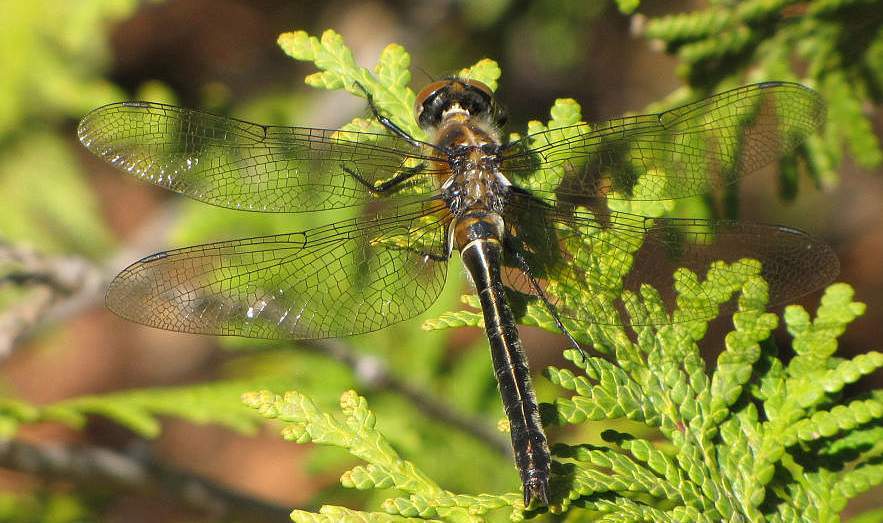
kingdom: Animalia
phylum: Arthropoda
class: Insecta
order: Odonata
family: Corduliidae
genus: Cordulia
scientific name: Cordulia shurtleffii
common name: American emerald
